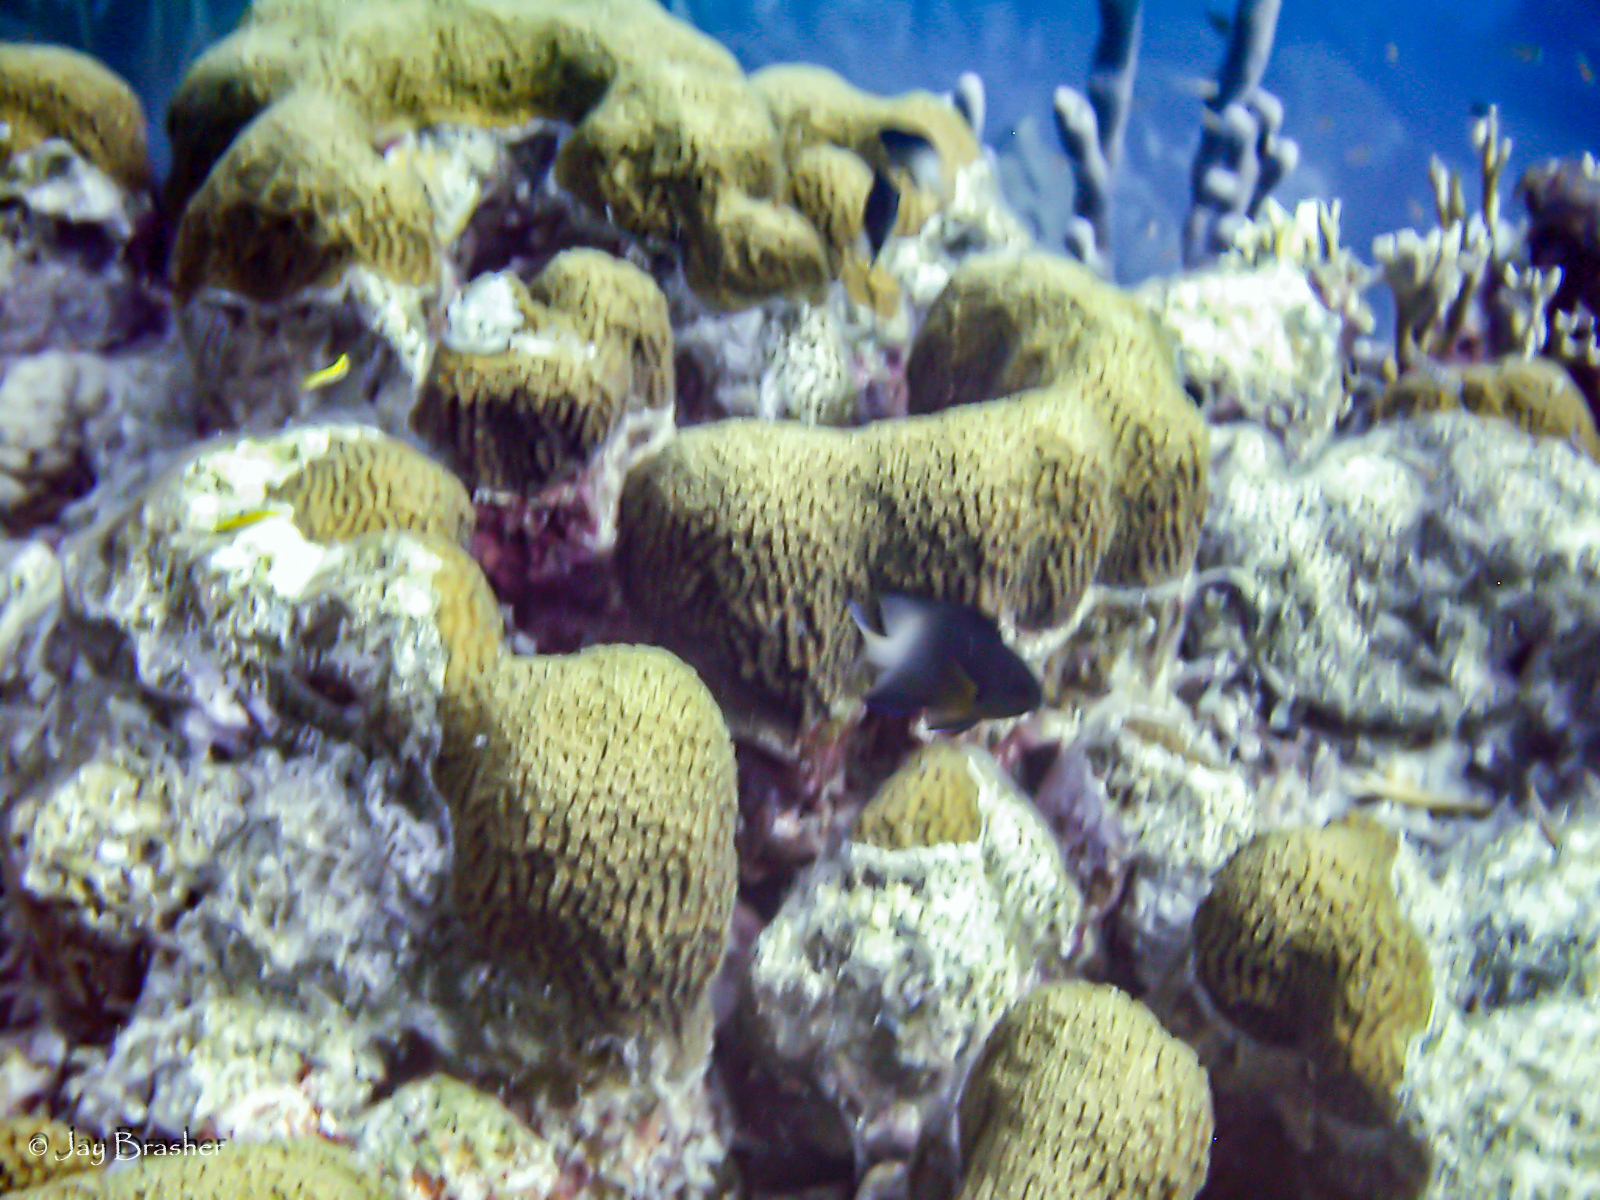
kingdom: Animalia
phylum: Chordata
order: Perciformes
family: Pomacentridae
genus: Stegastes
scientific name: Stegastes partitus
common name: Bicolor damselfish
